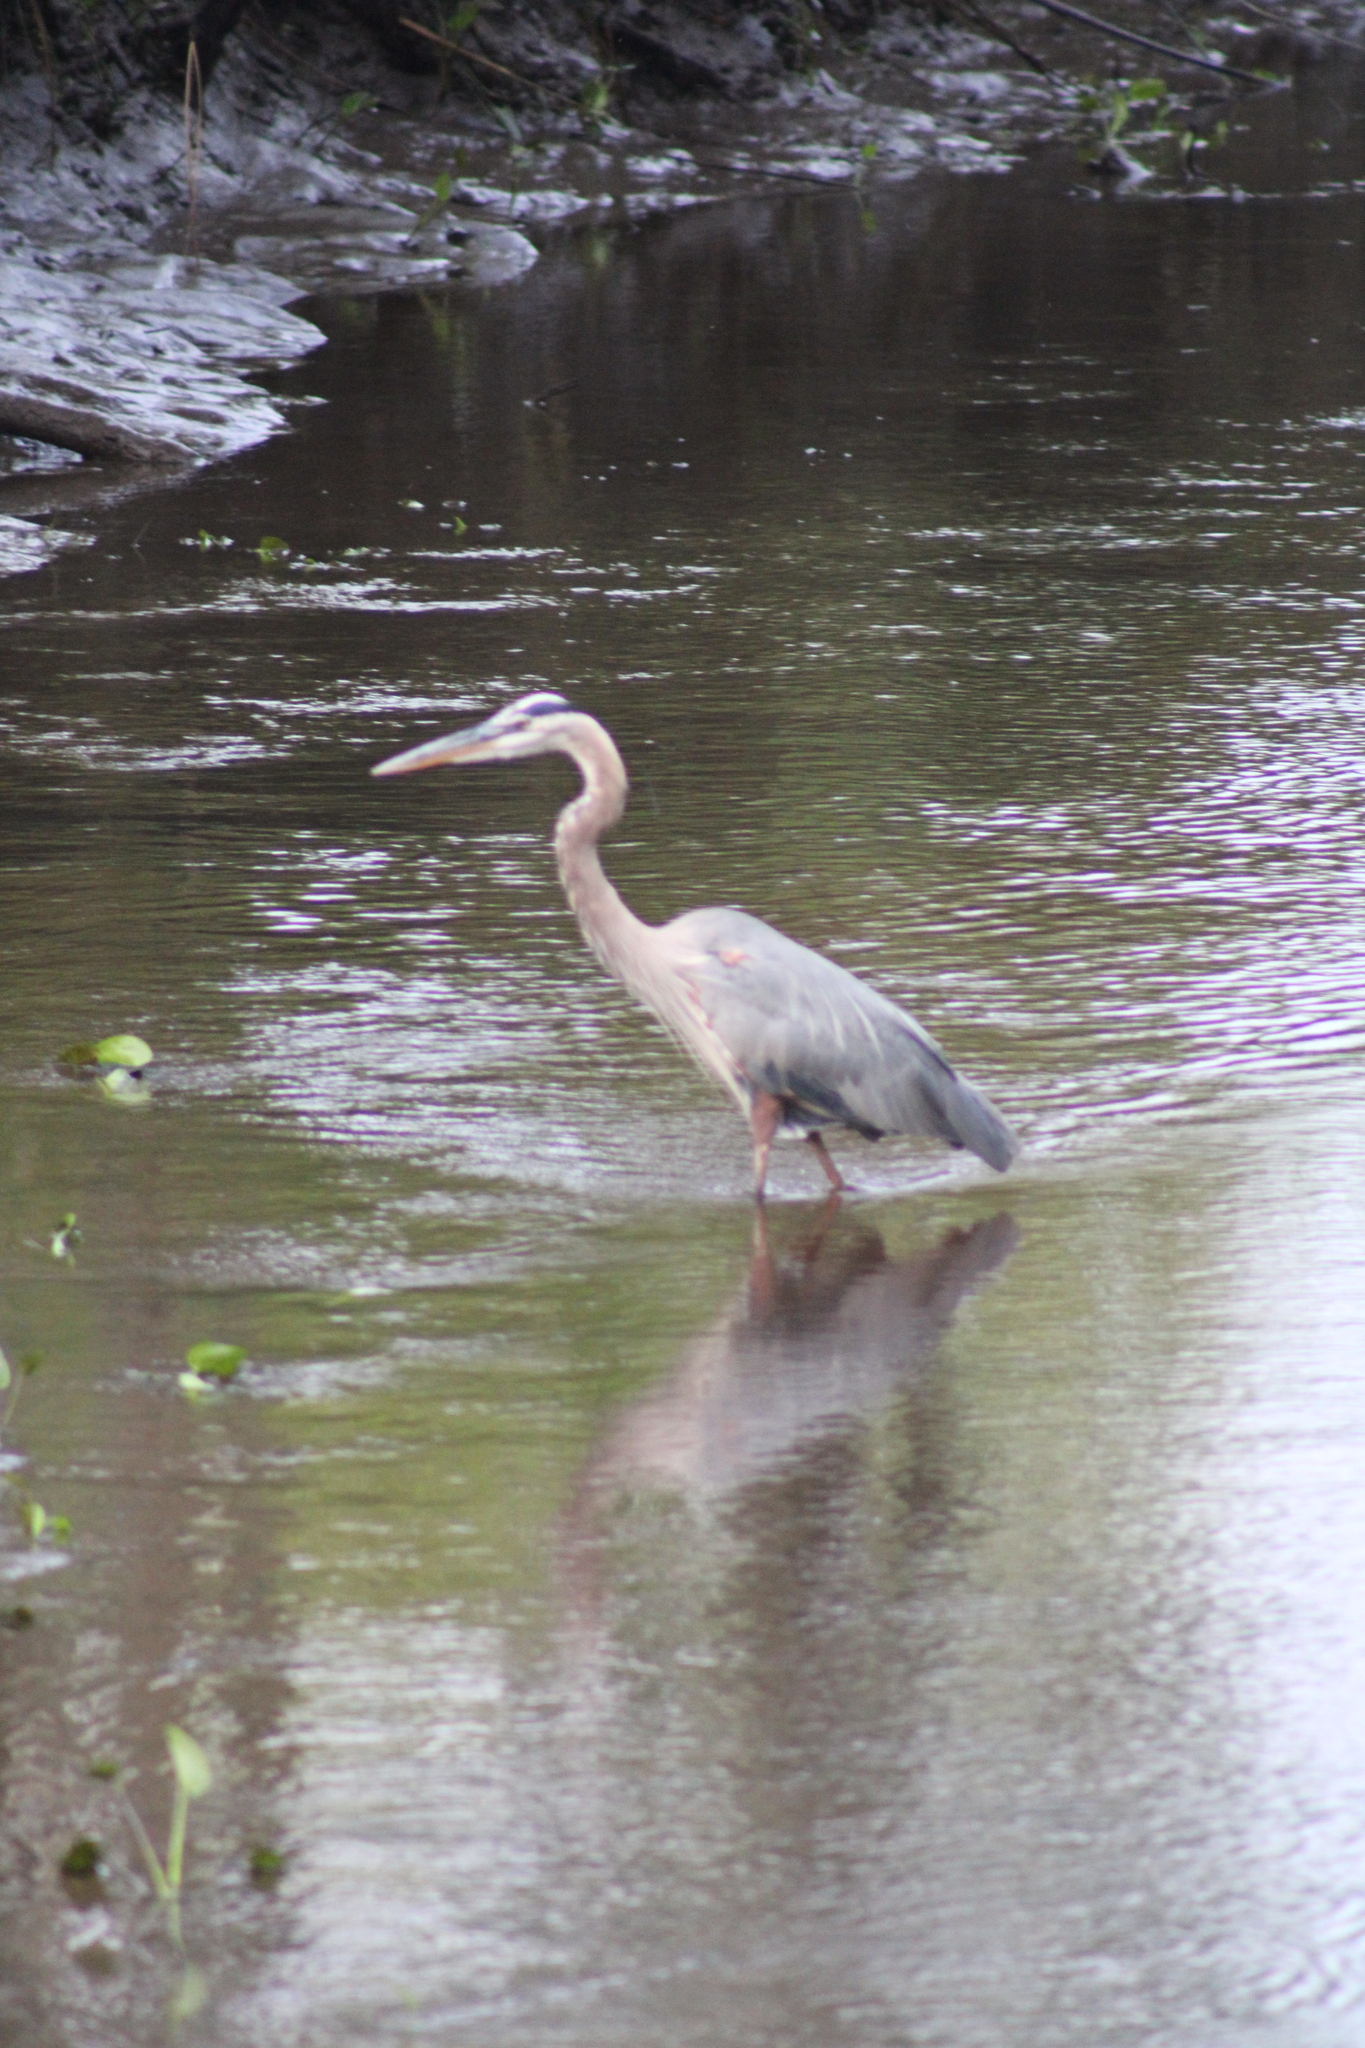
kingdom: Animalia
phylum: Chordata
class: Aves
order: Pelecaniformes
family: Ardeidae
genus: Ardea
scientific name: Ardea herodias
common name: Great blue heron
